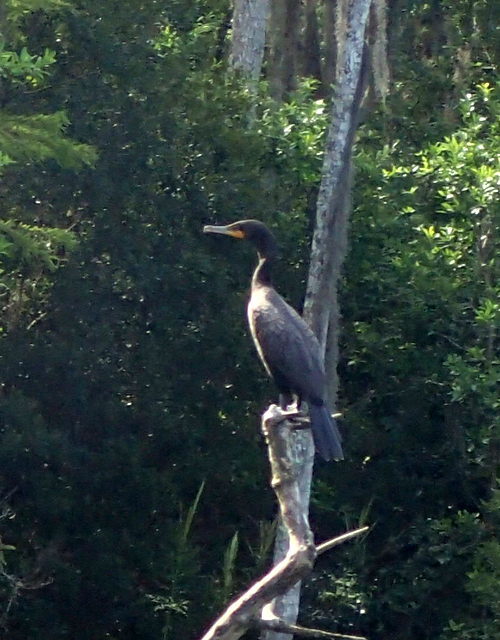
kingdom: Animalia
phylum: Chordata
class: Aves
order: Suliformes
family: Phalacrocoracidae
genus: Phalacrocorax
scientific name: Phalacrocorax auritus
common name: Double-crested cormorant
